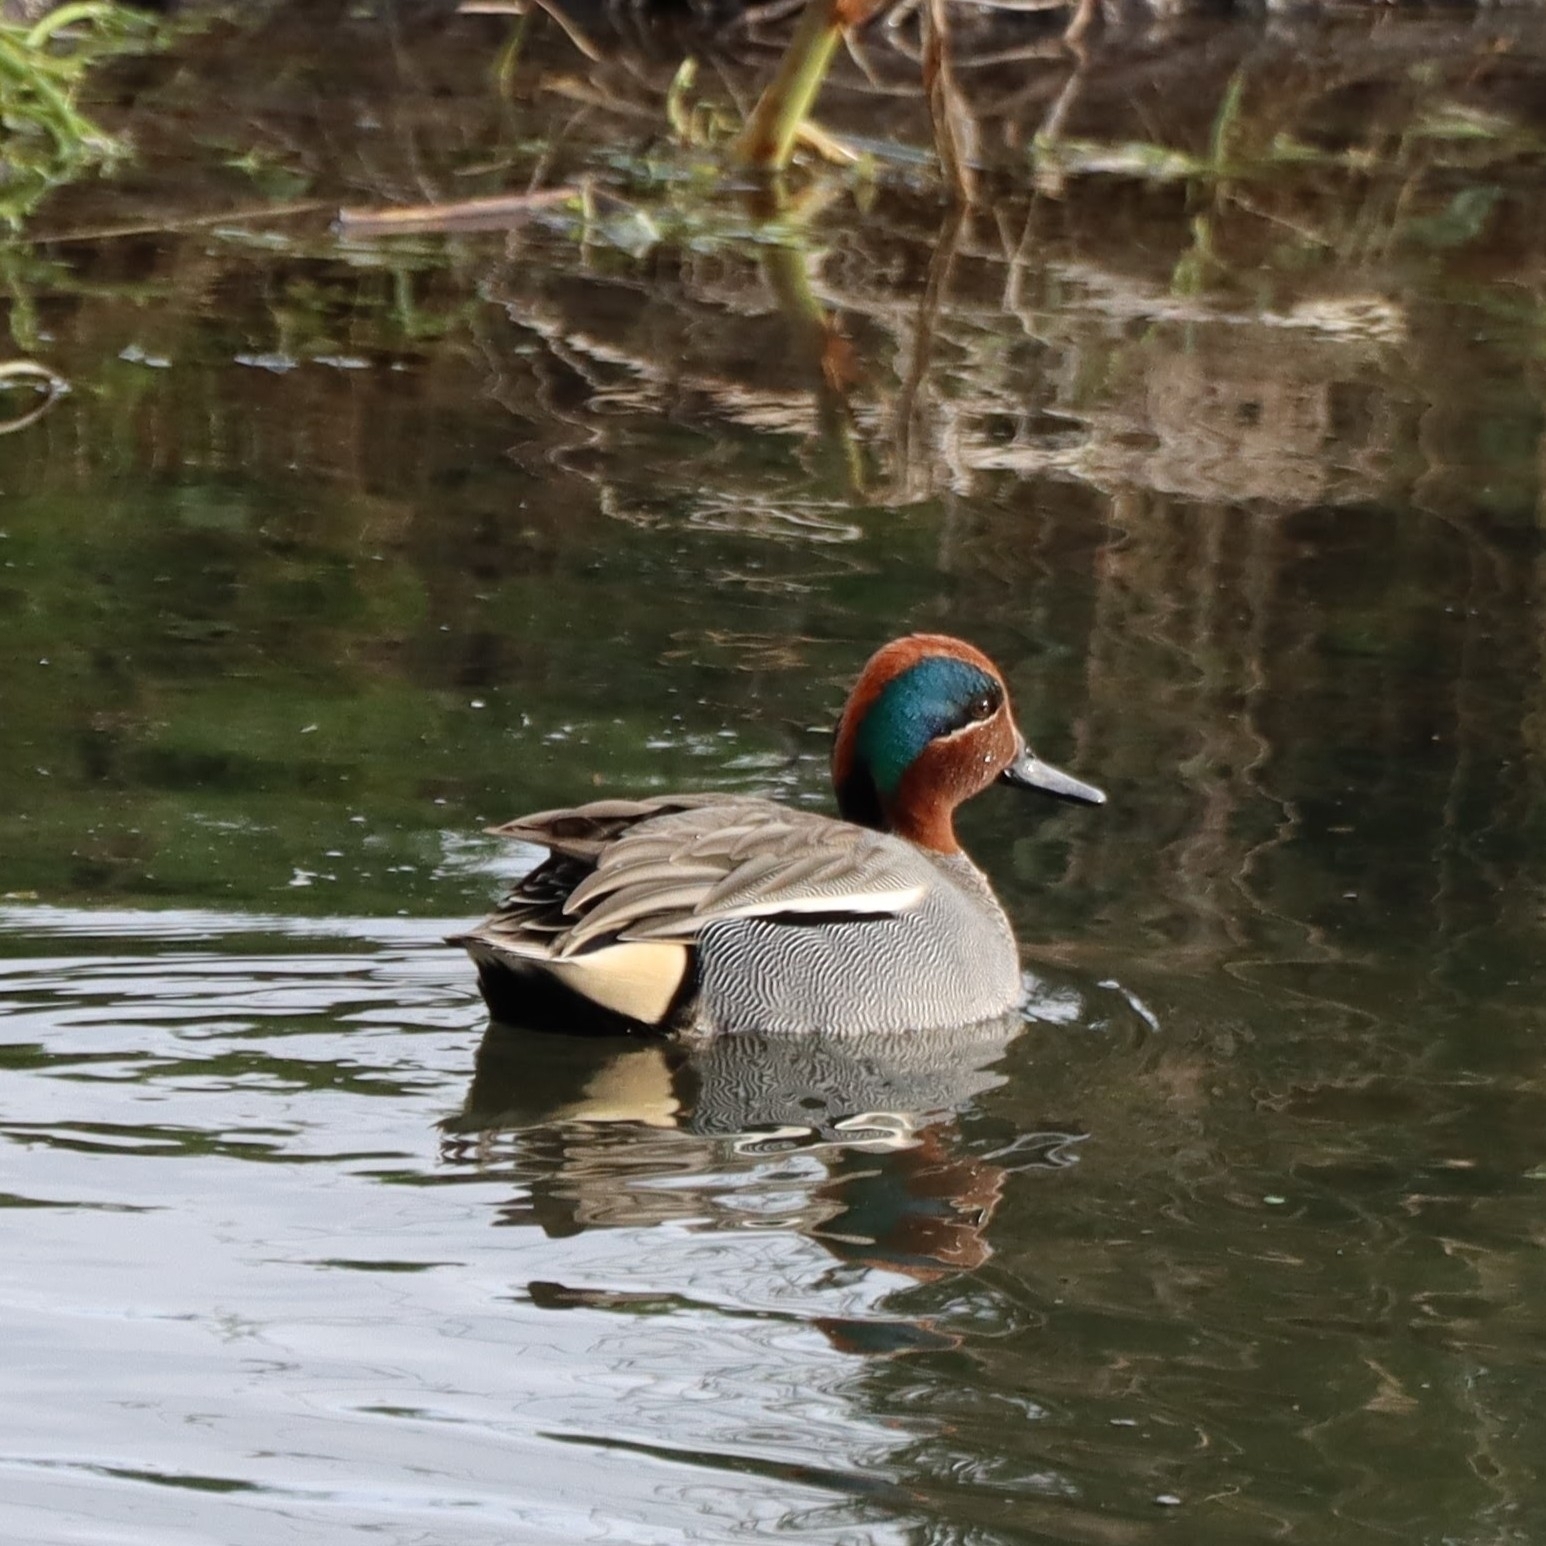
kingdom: Animalia
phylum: Chordata
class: Aves
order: Anseriformes
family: Anatidae
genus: Anas
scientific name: Anas crecca
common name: Eurasian teal
